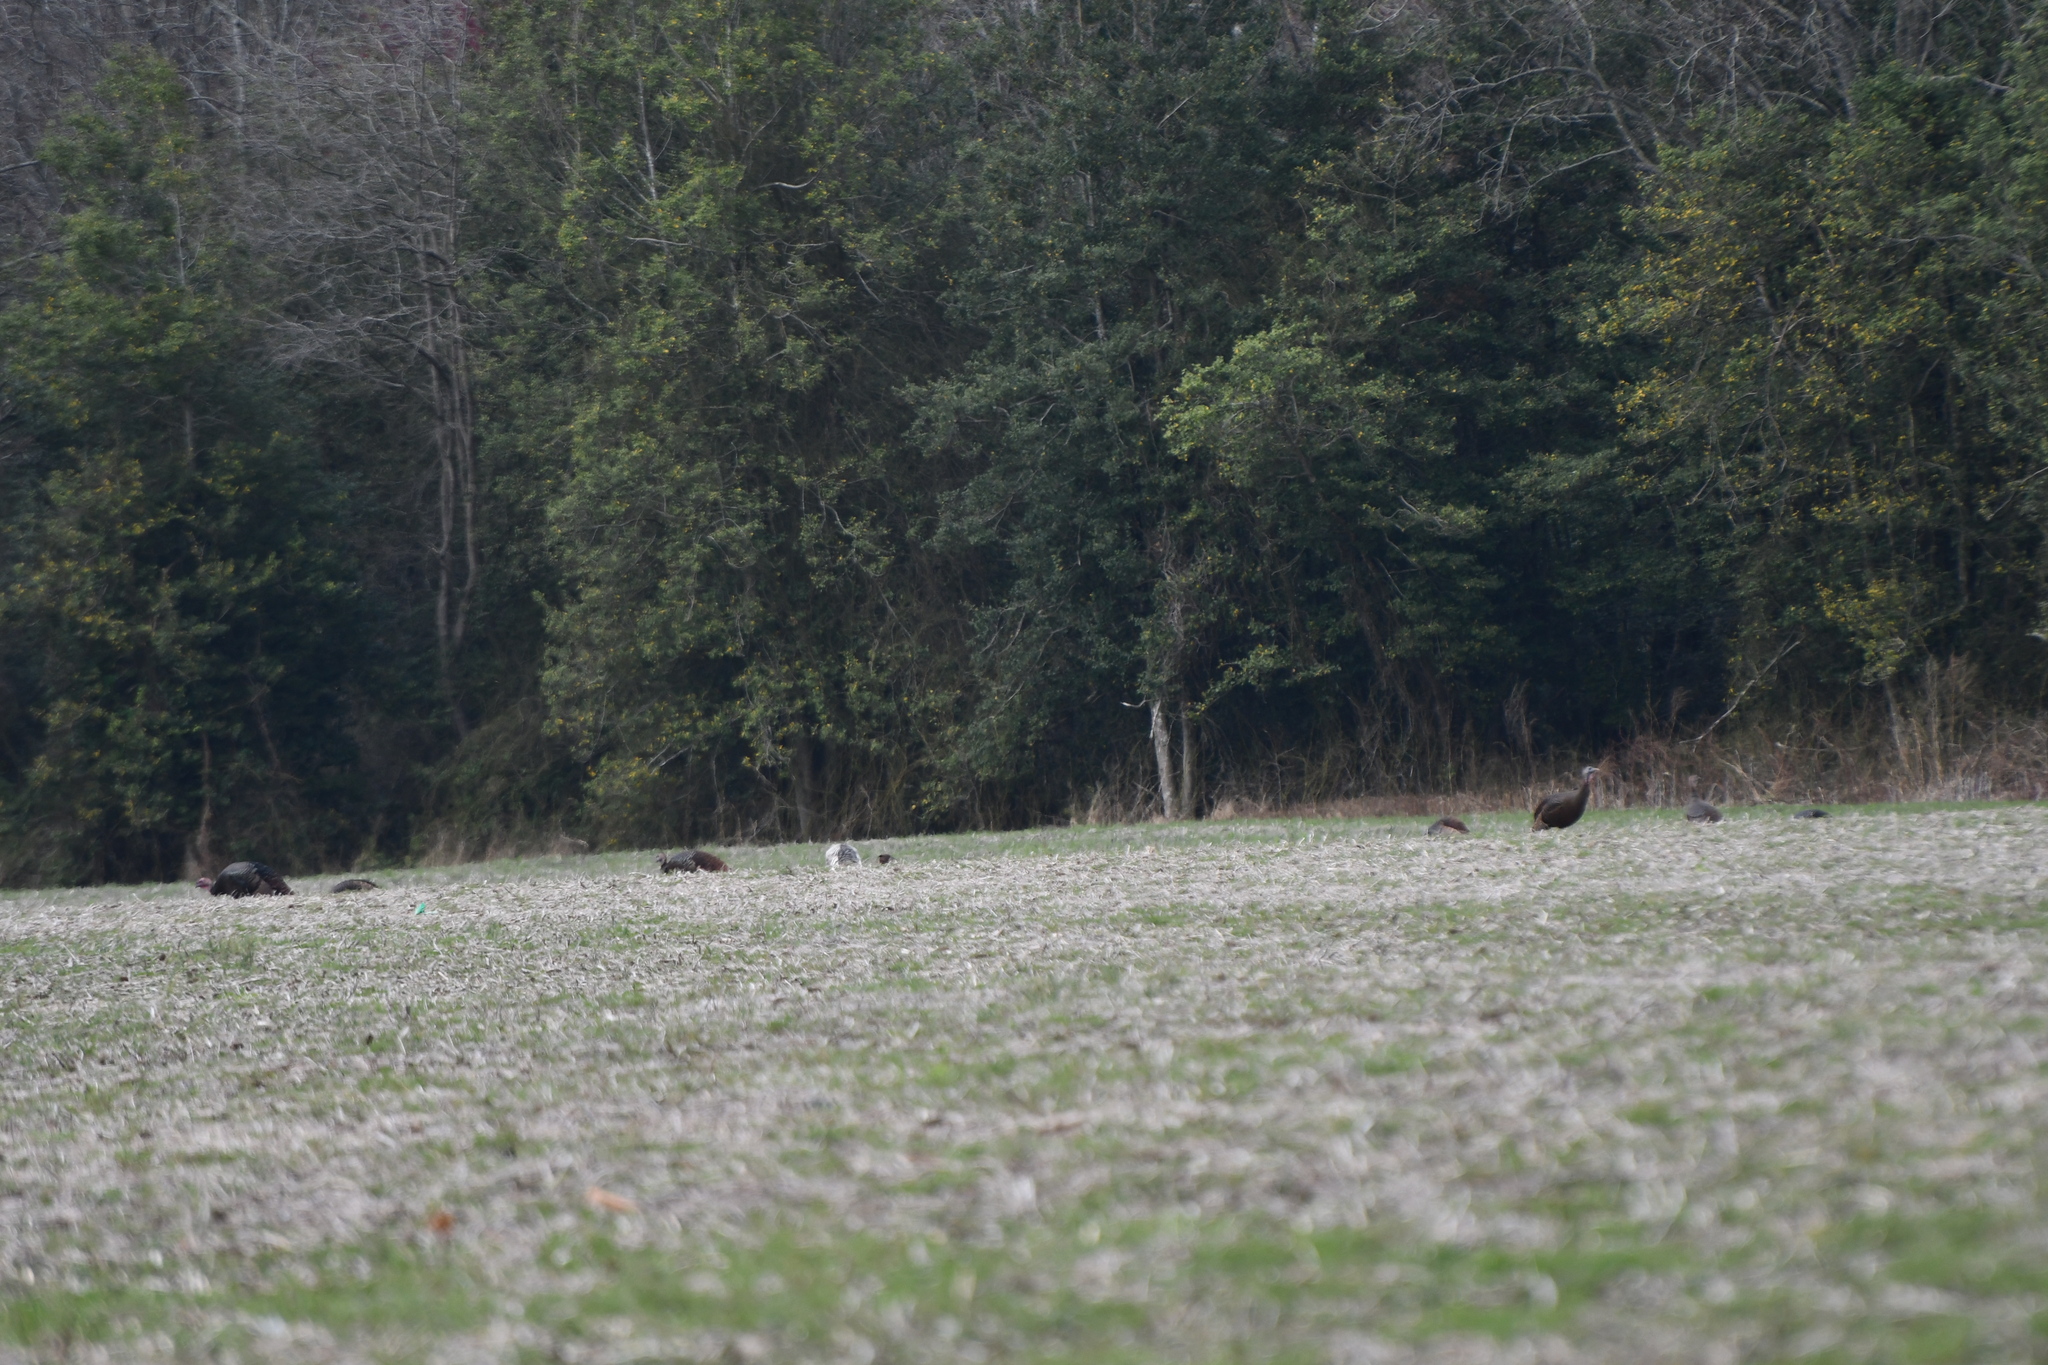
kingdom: Animalia
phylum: Chordata
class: Aves
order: Galliformes
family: Phasianidae
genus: Meleagris
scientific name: Meleagris gallopavo
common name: Wild turkey
